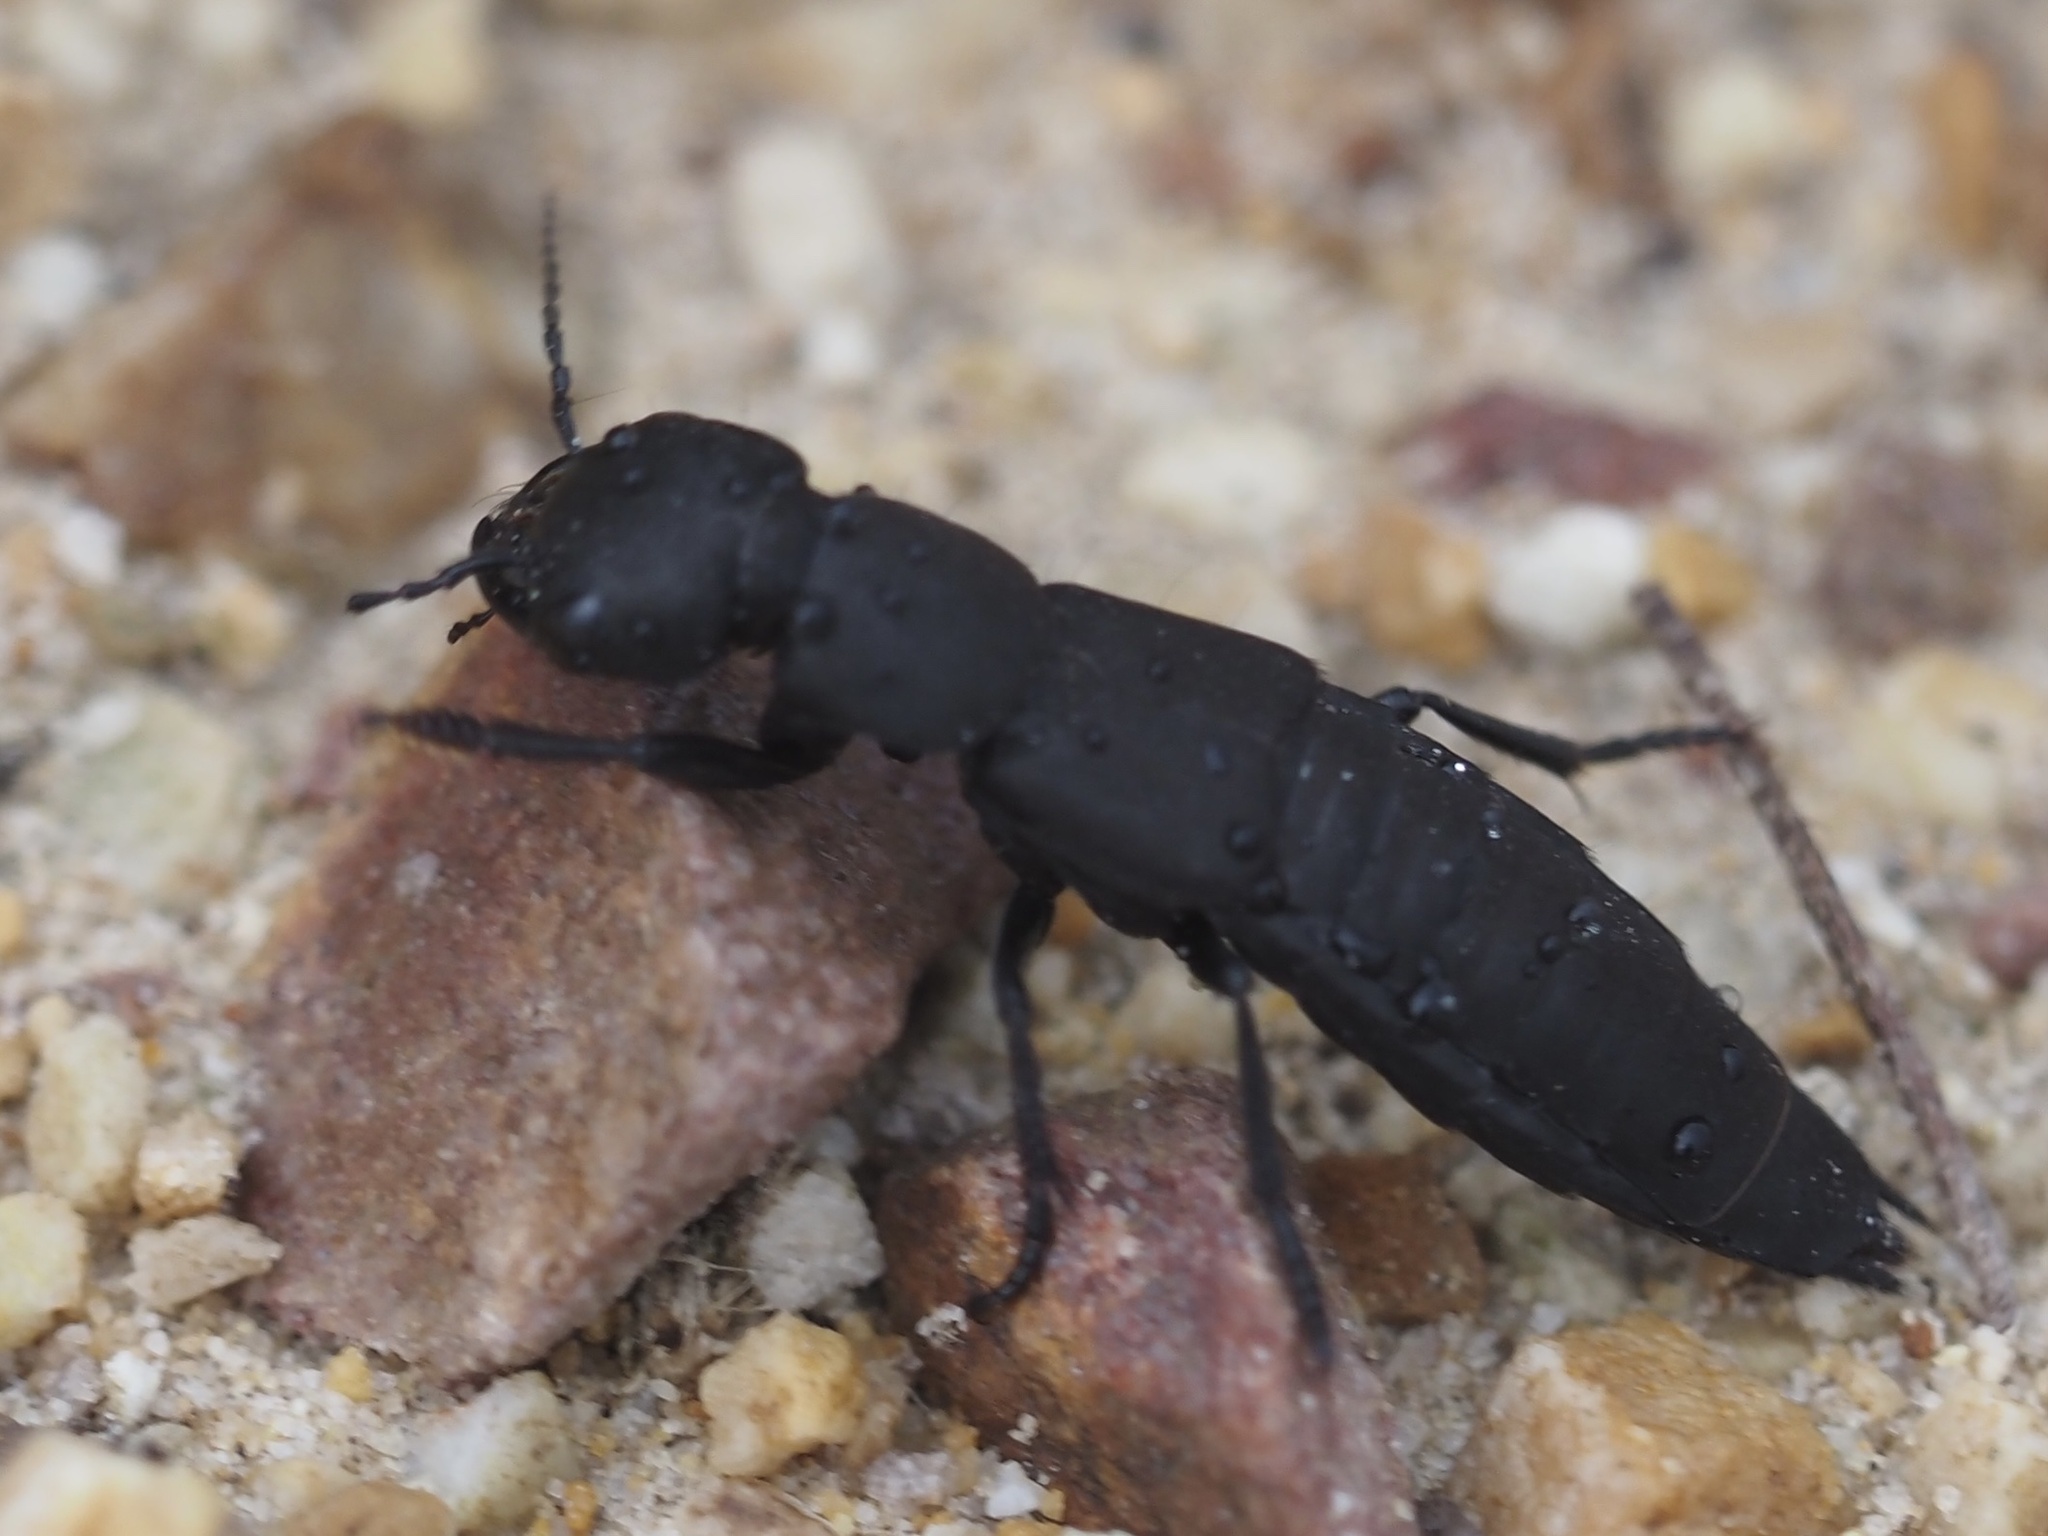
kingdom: Animalia
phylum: Arthropoda
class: Insecta
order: Coleoptera
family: Staphylinidae
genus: Ocypus
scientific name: Ocypus olens
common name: Devil's coach-horse
